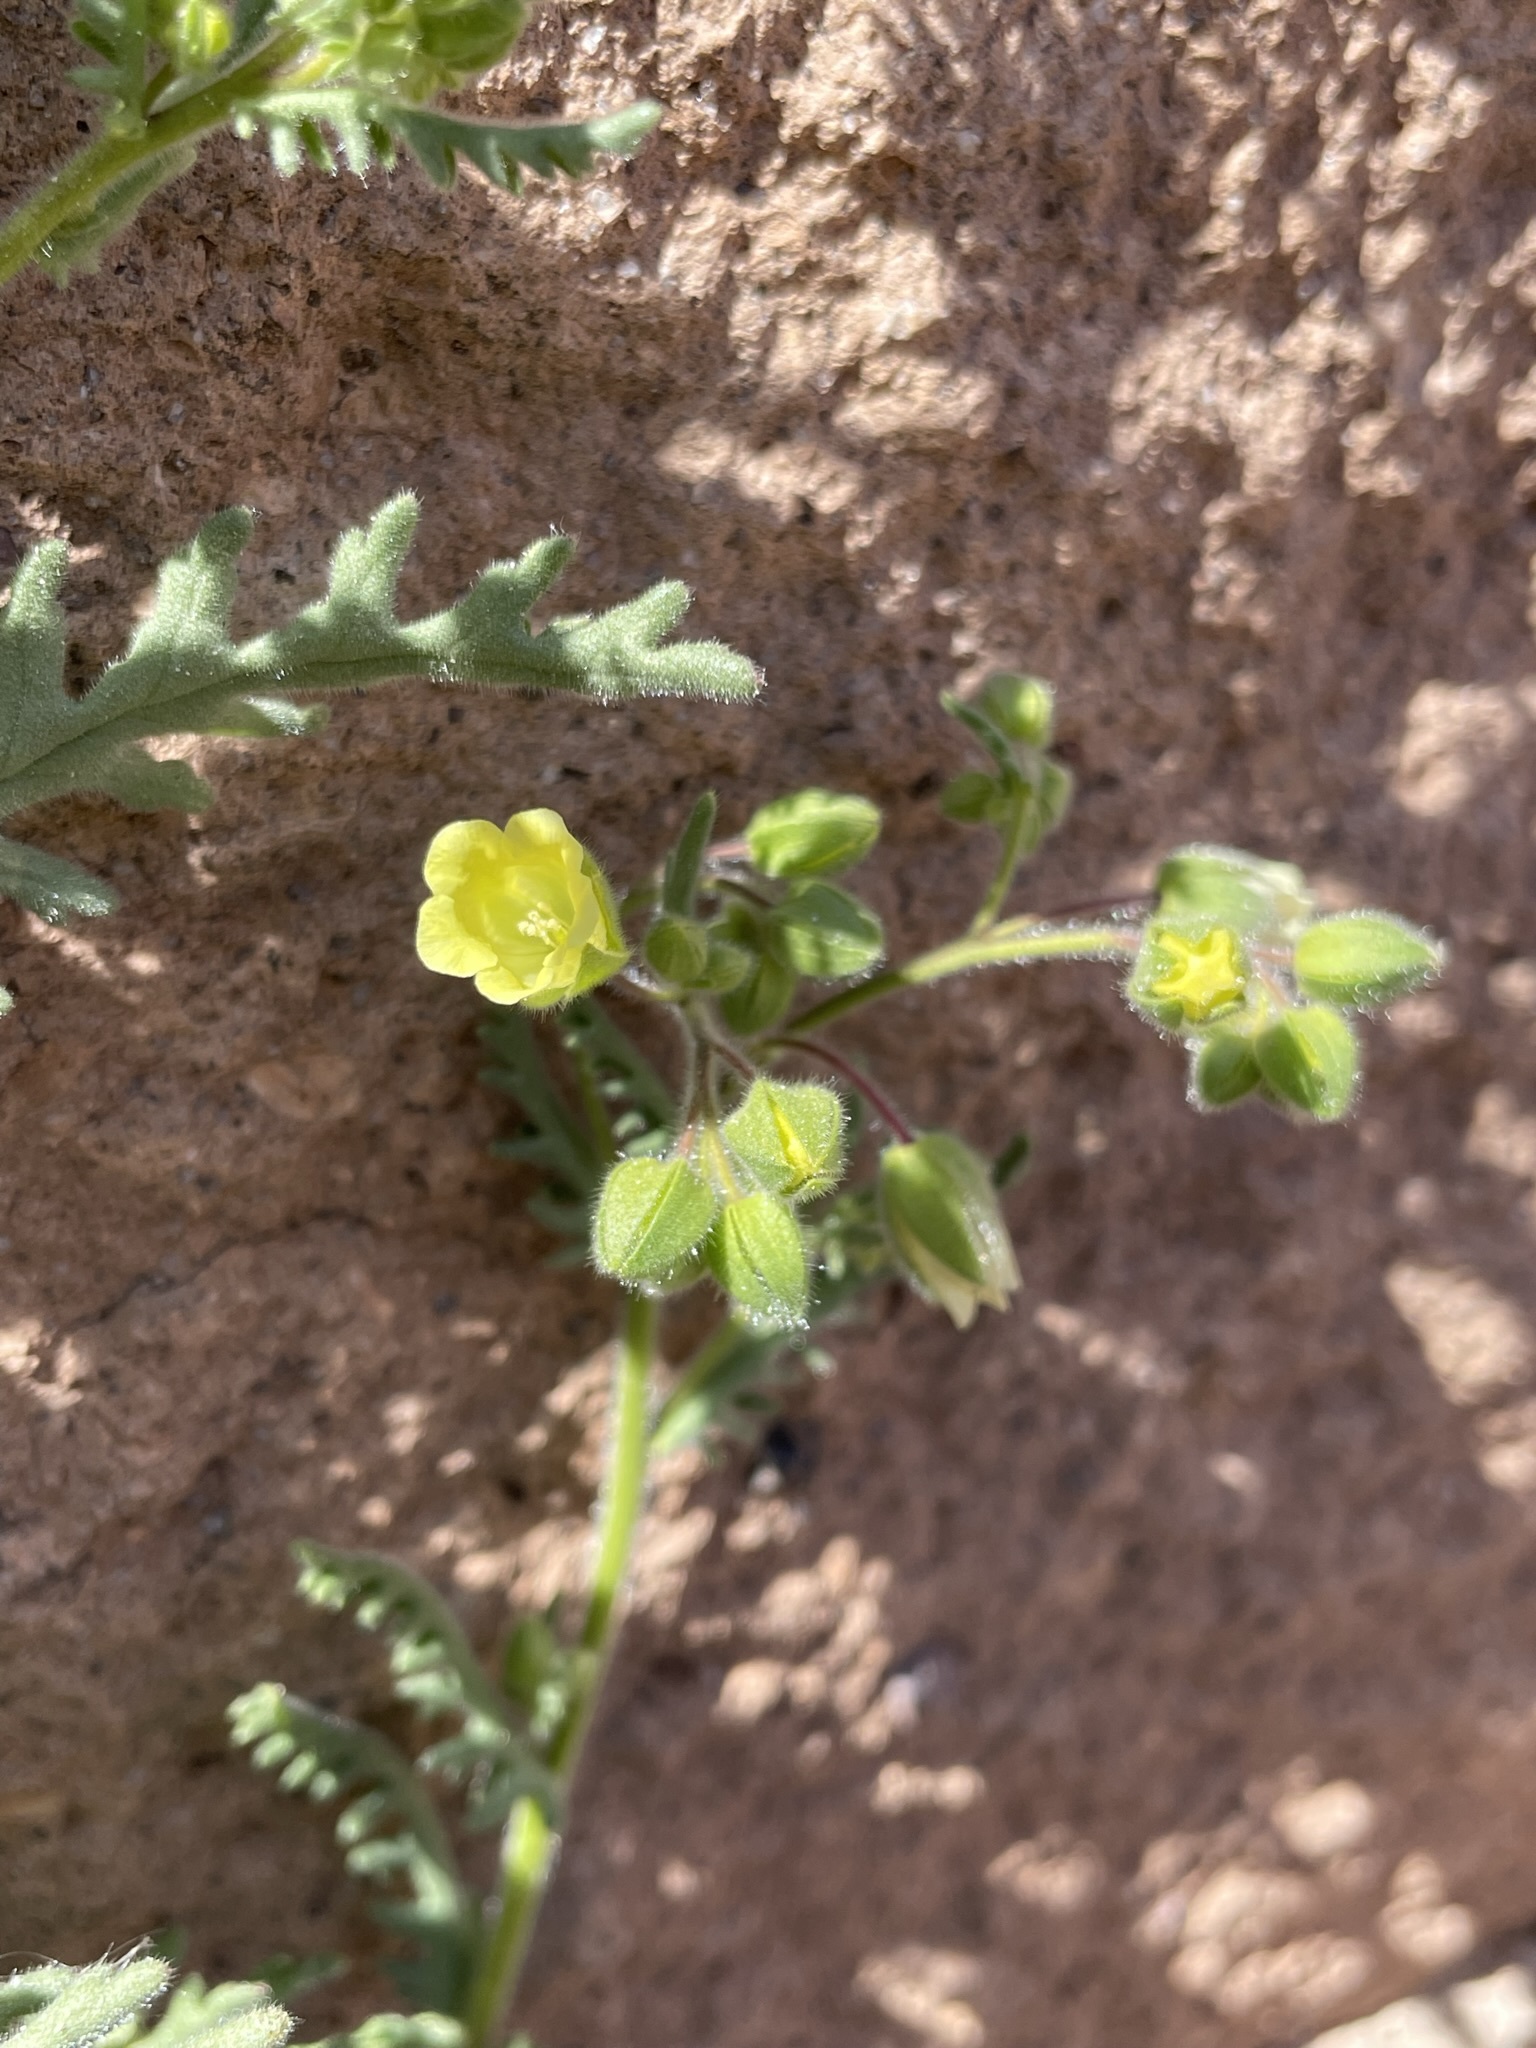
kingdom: Plantae
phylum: Tracheophyta
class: Magnoliopsida
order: Boraginales
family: Hydrophyllaceae
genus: Emmenanthe
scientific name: Emmenanthe penduliflora
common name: Whispering-bells
